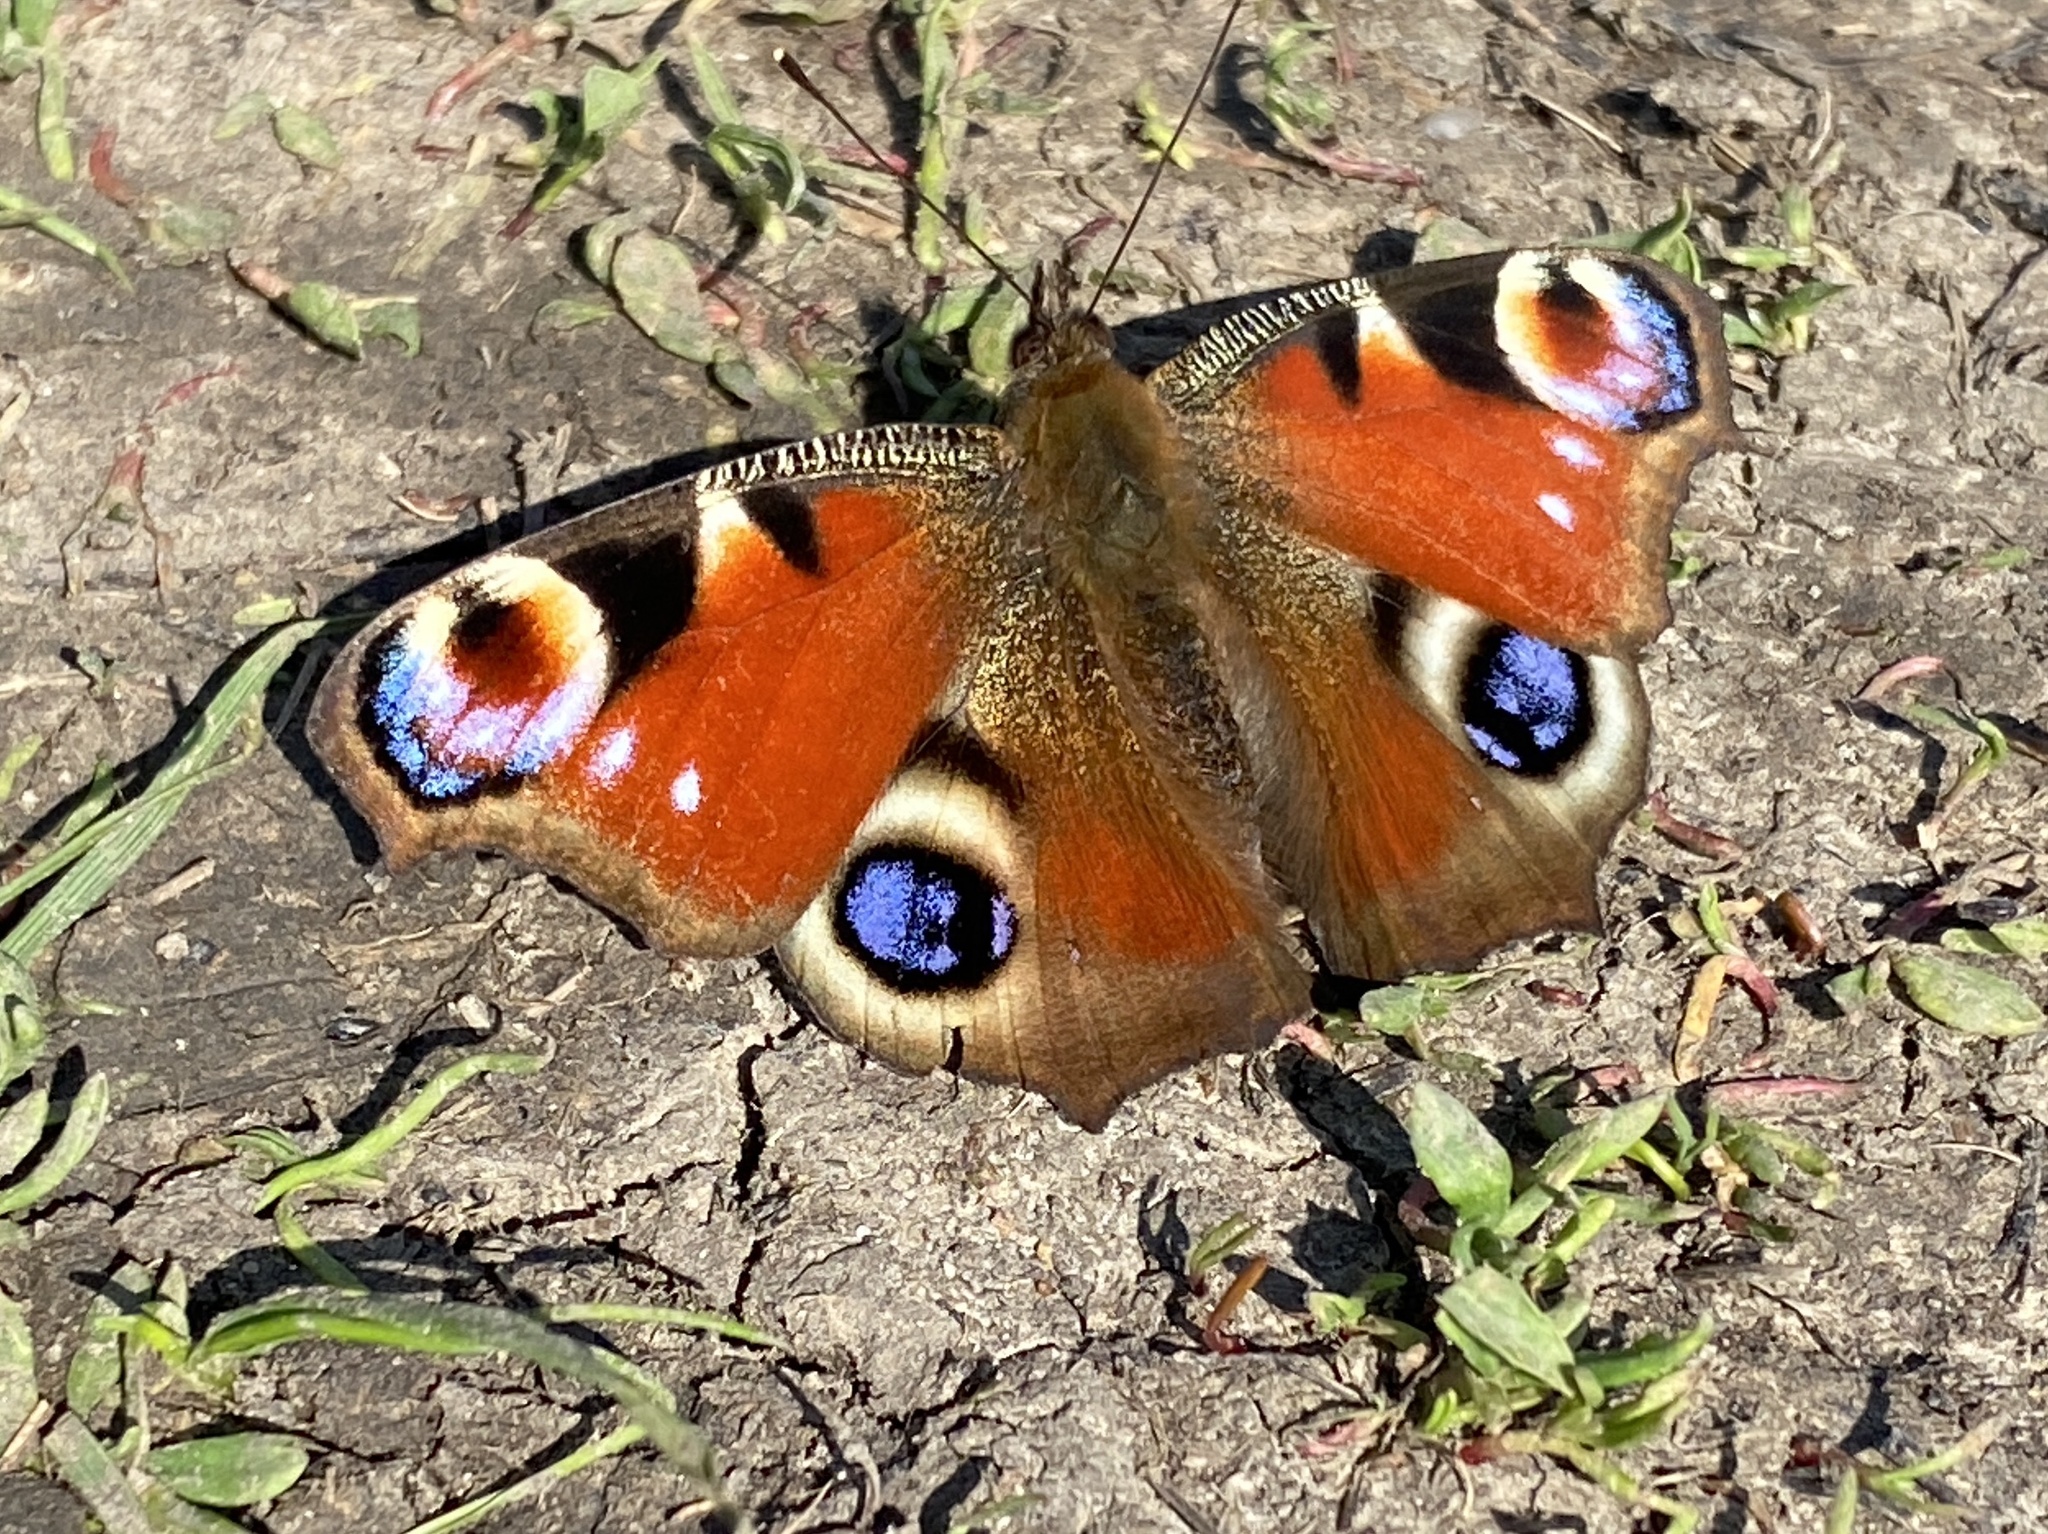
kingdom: Animalia
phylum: Arthropoda
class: Insecta
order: Lepidoptera
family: Nymphalidae
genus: Aglais
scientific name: Aglais io
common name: Peacock
